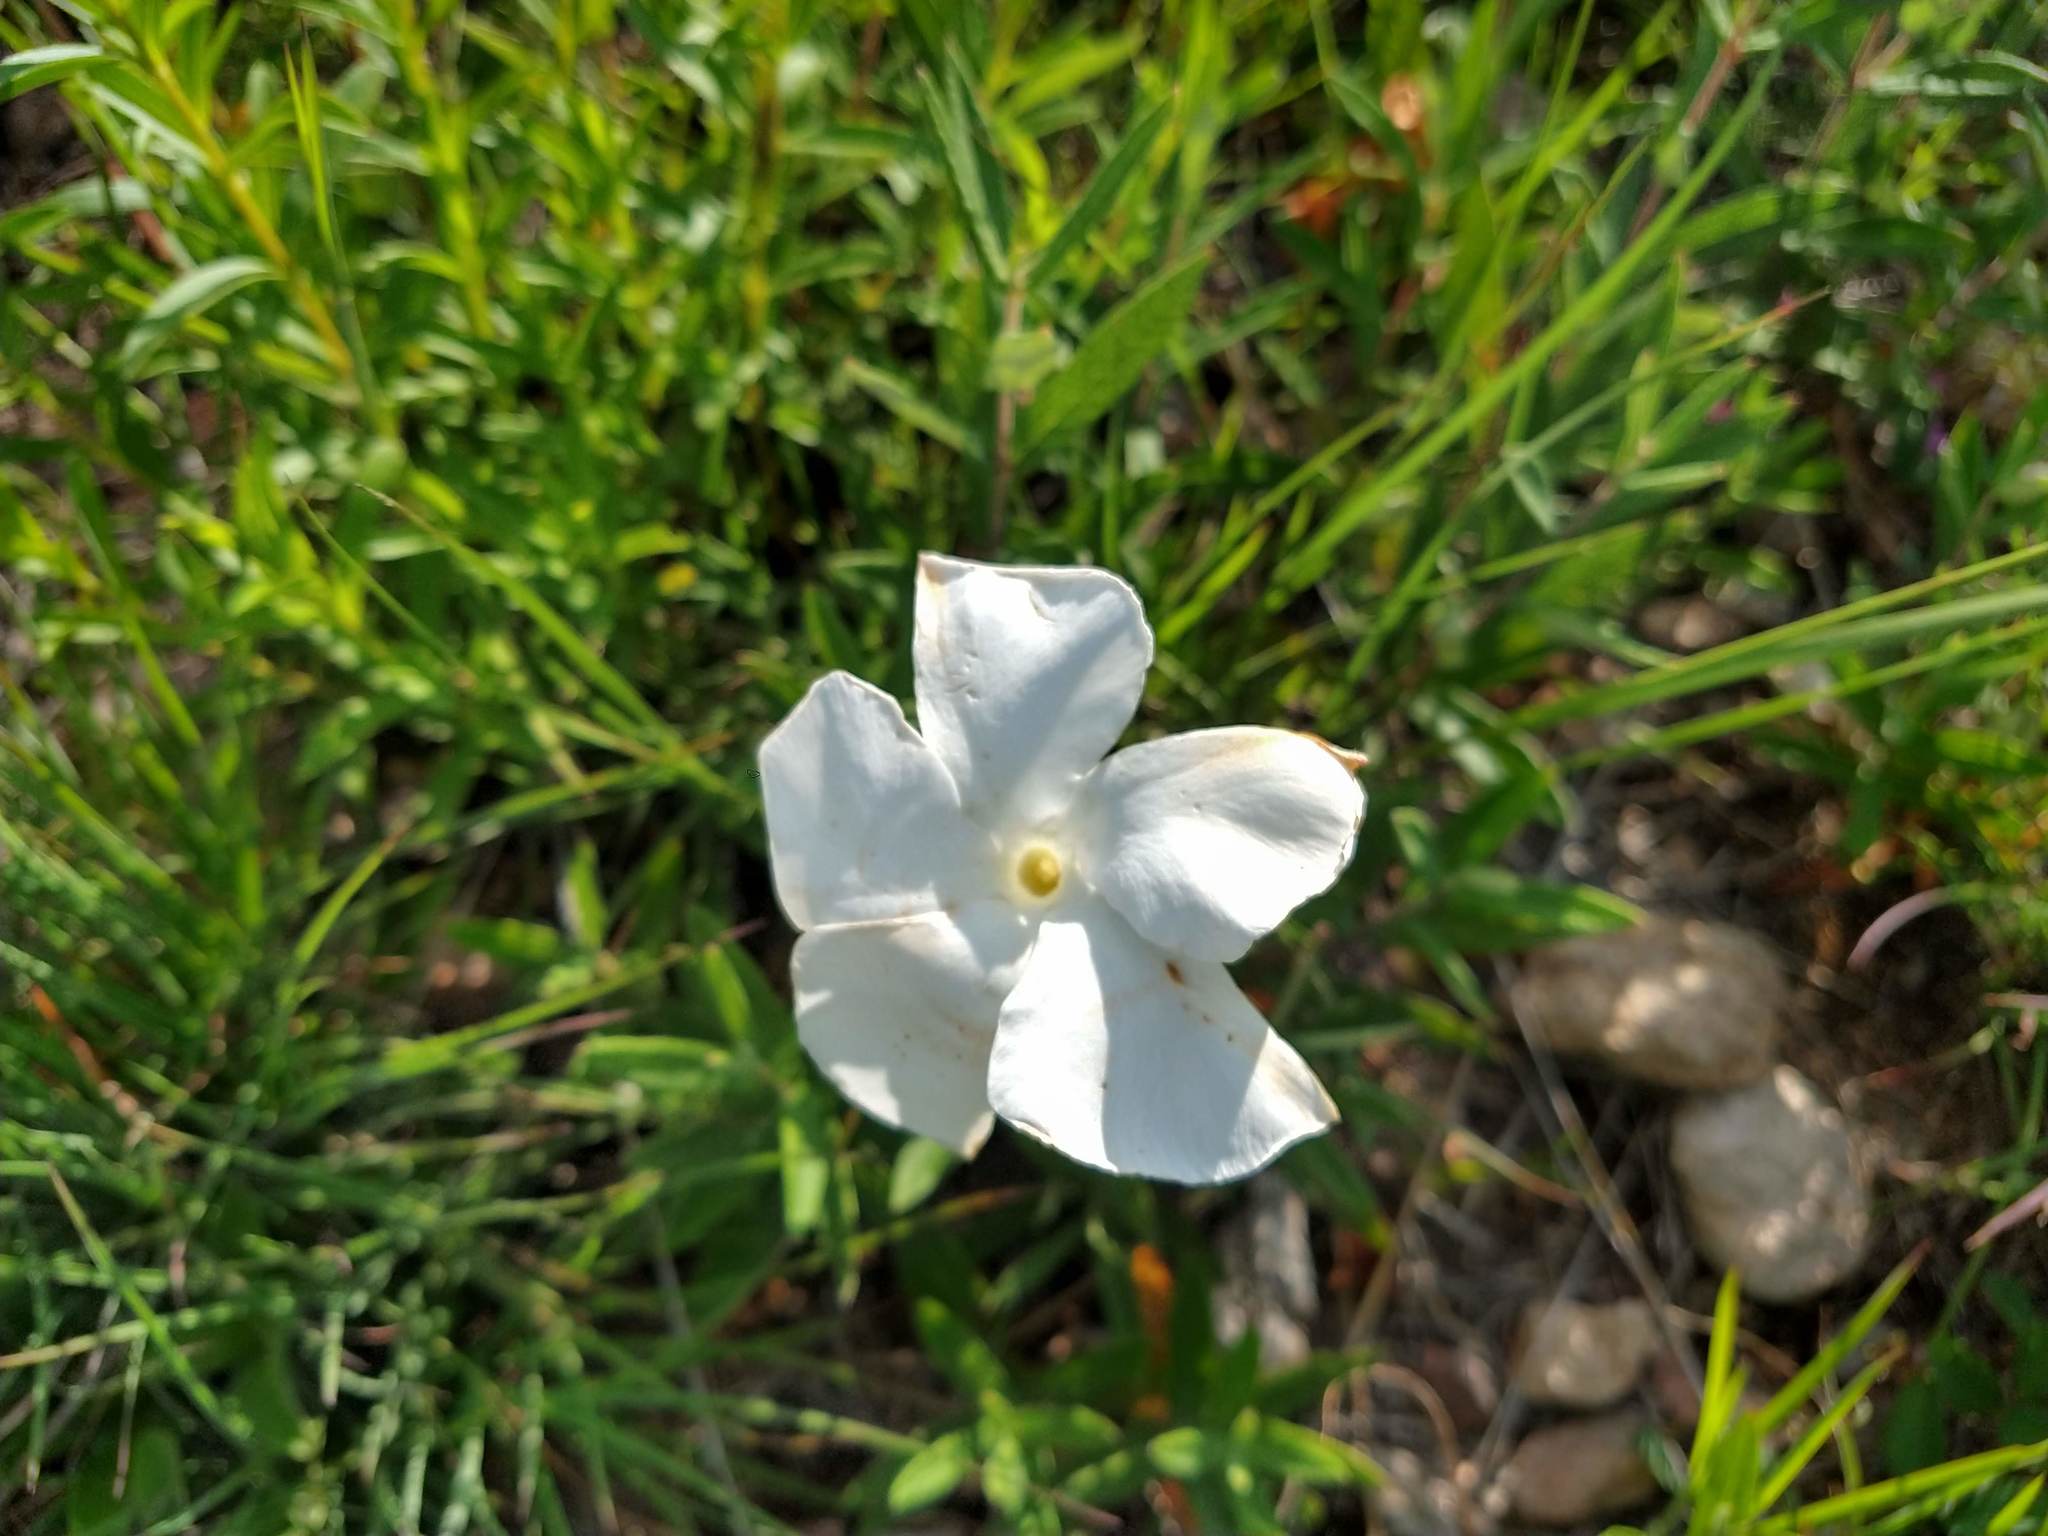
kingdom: Plantae
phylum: Tracheophyta
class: Magnoliopsida
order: Gentianales
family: Apocynaceae
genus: Mandevilla
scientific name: Mandevilla hypoleuca
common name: Davis mountain rocktrumpet
